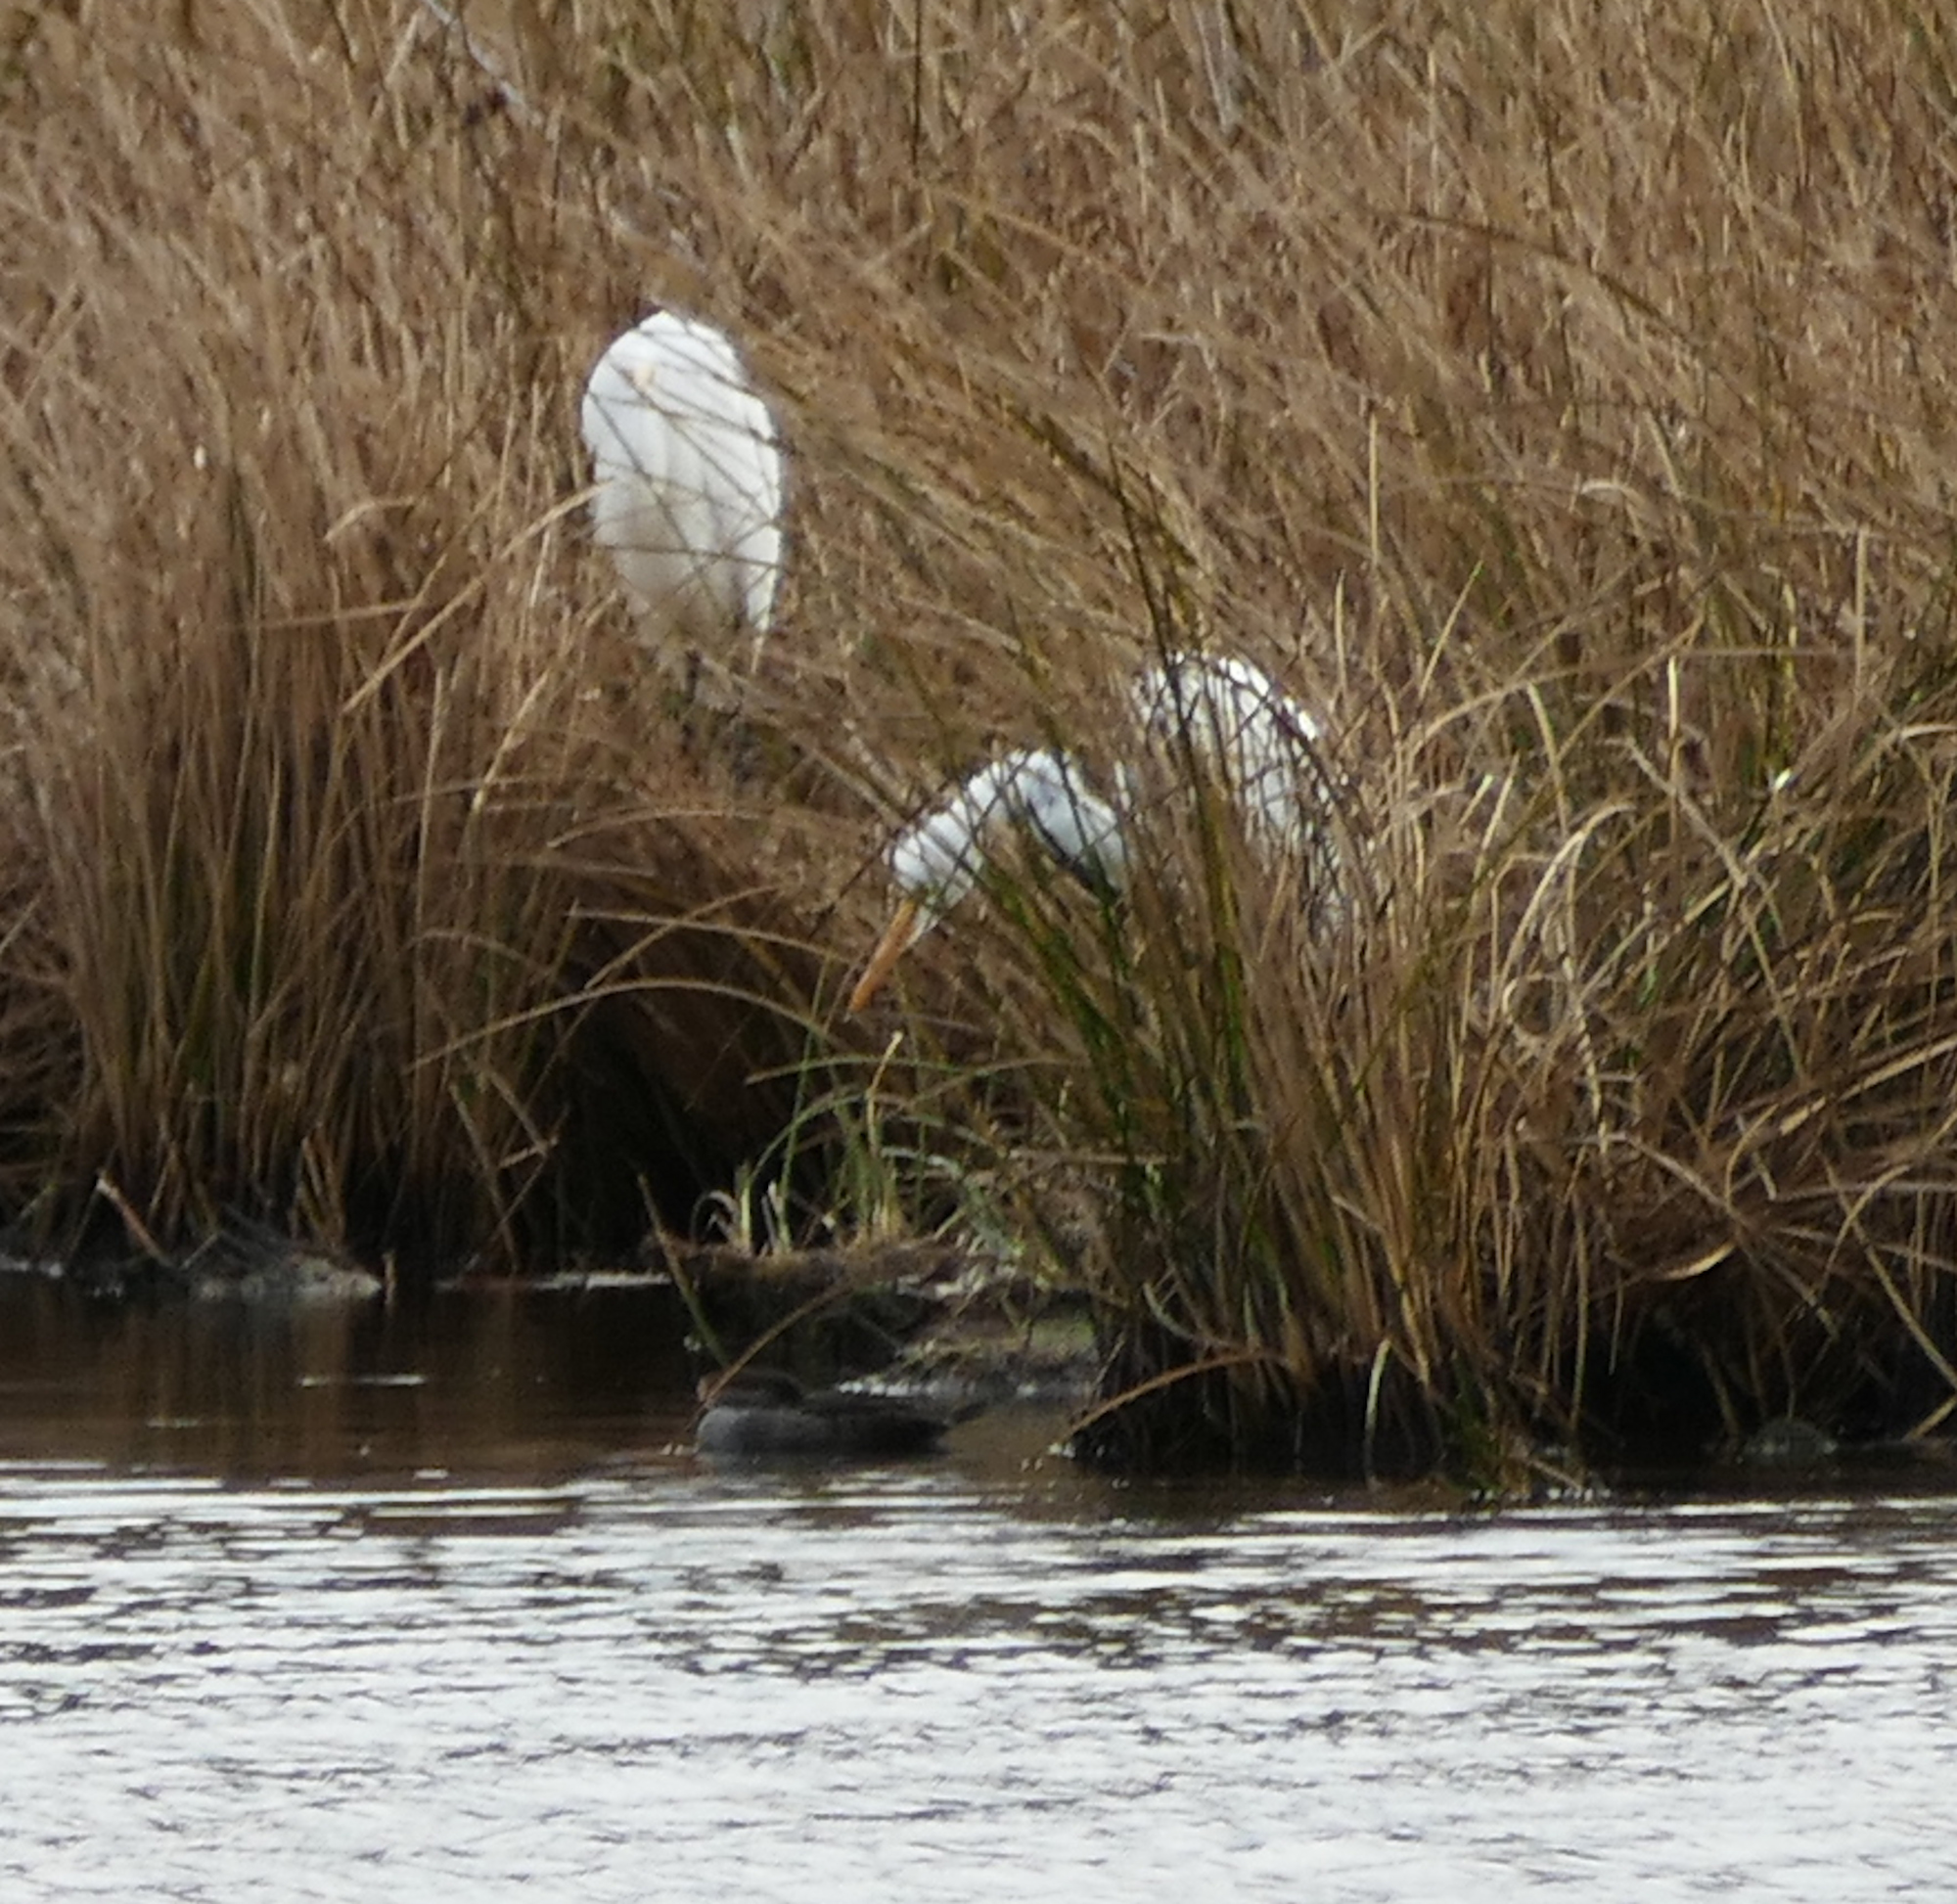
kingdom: Animalia
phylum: Chordata
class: Aves
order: Pelecaniformes
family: Ardeidae
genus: Ardea
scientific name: Ardea alba
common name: Great egret
